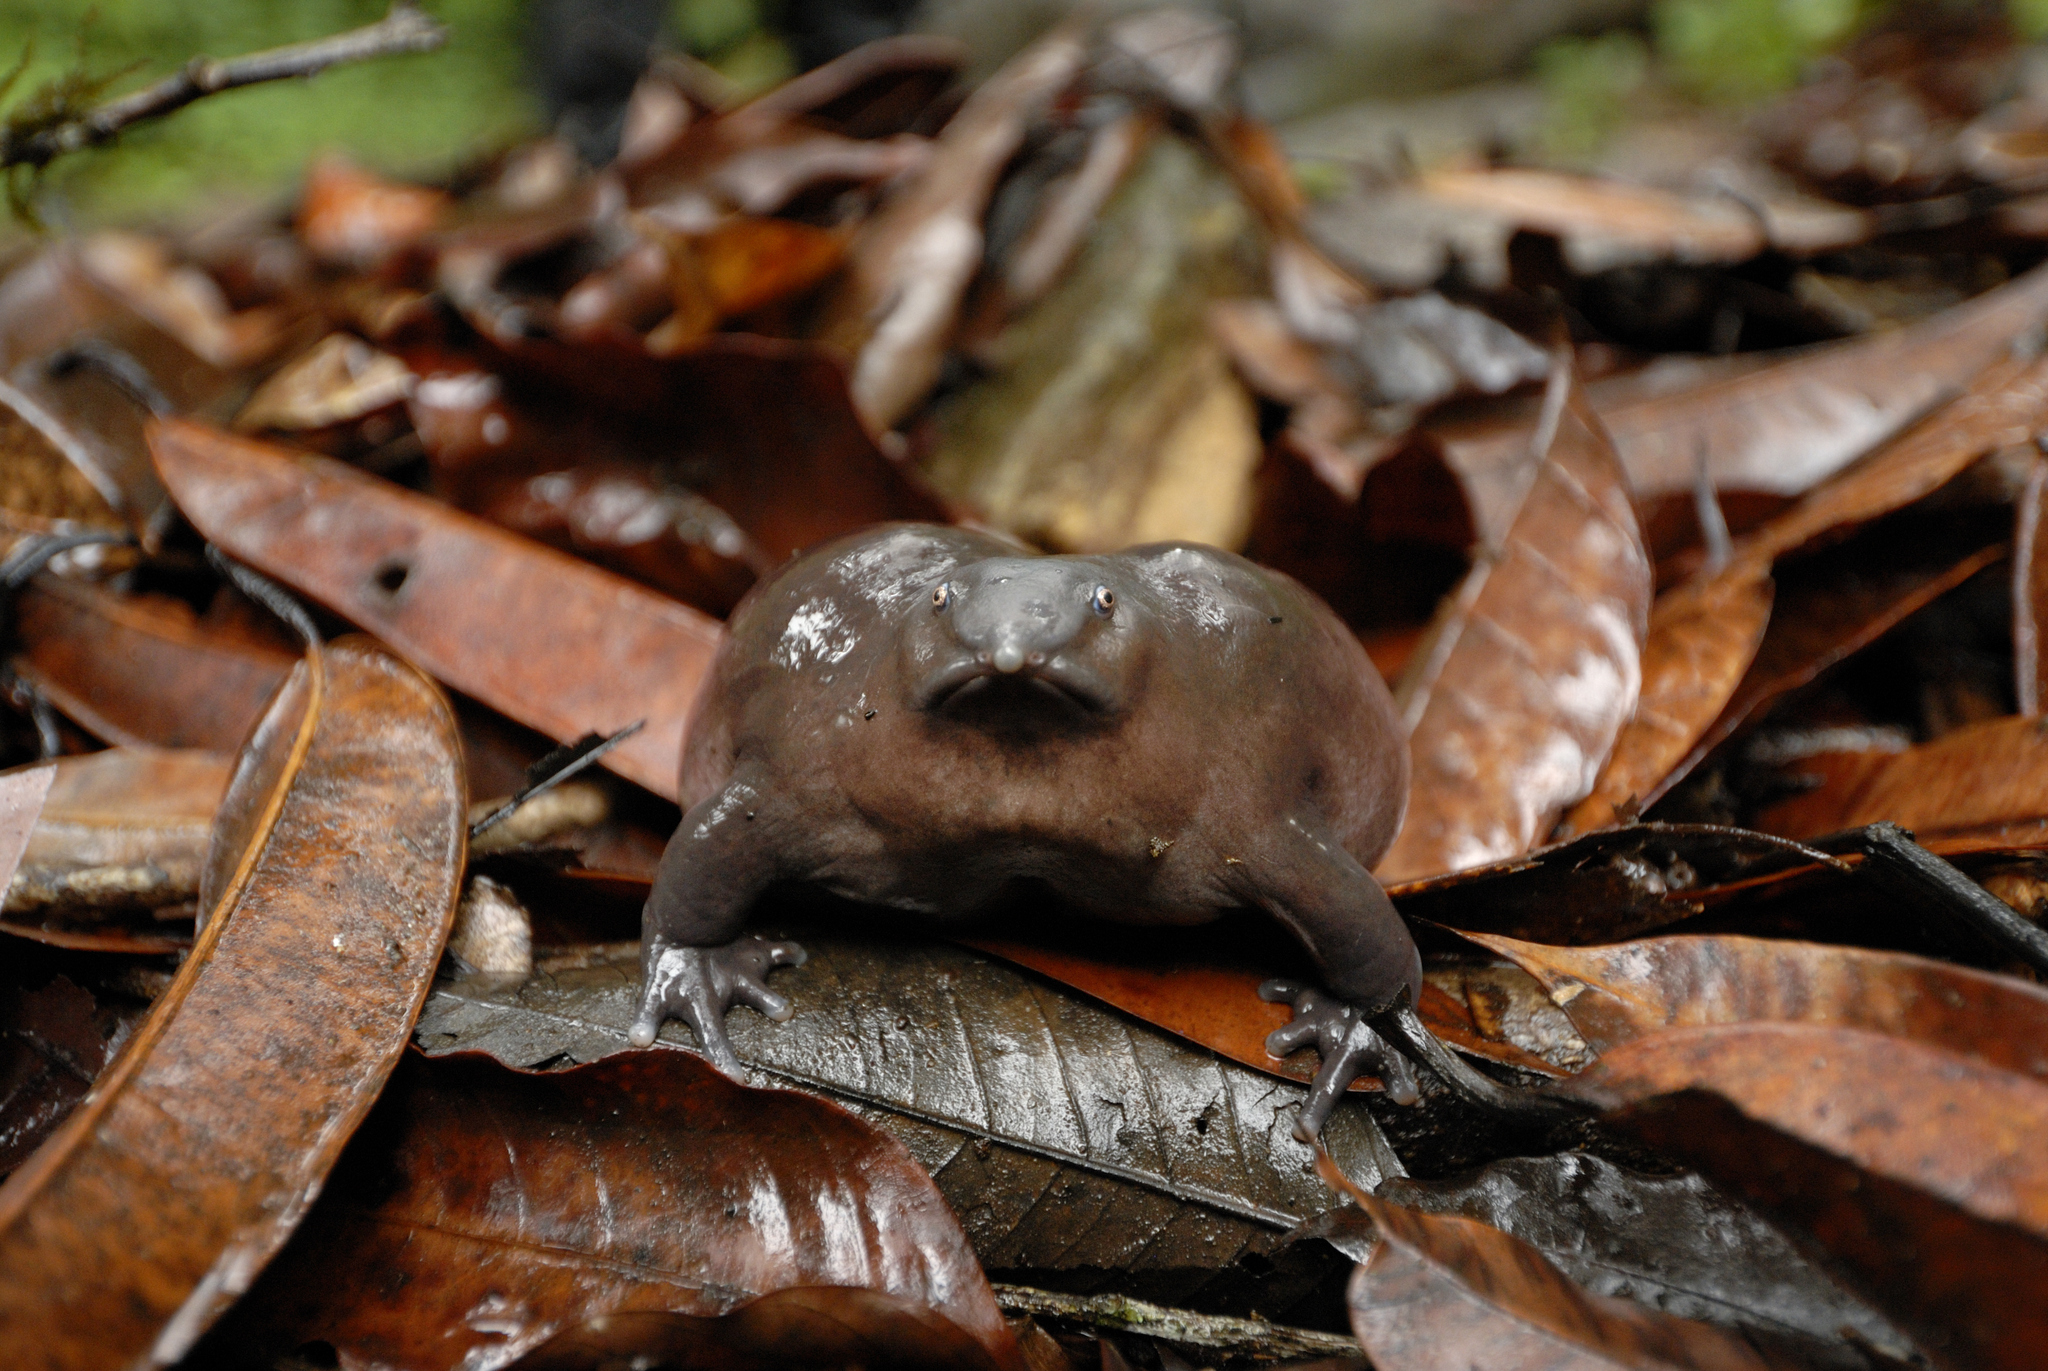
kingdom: Animalia
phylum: Chordata
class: Amphibia
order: Anura
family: Nasikabatrachidae
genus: Nasikabatrachus
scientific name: Nasikabatrachus sahyadrensis
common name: Purple frog
